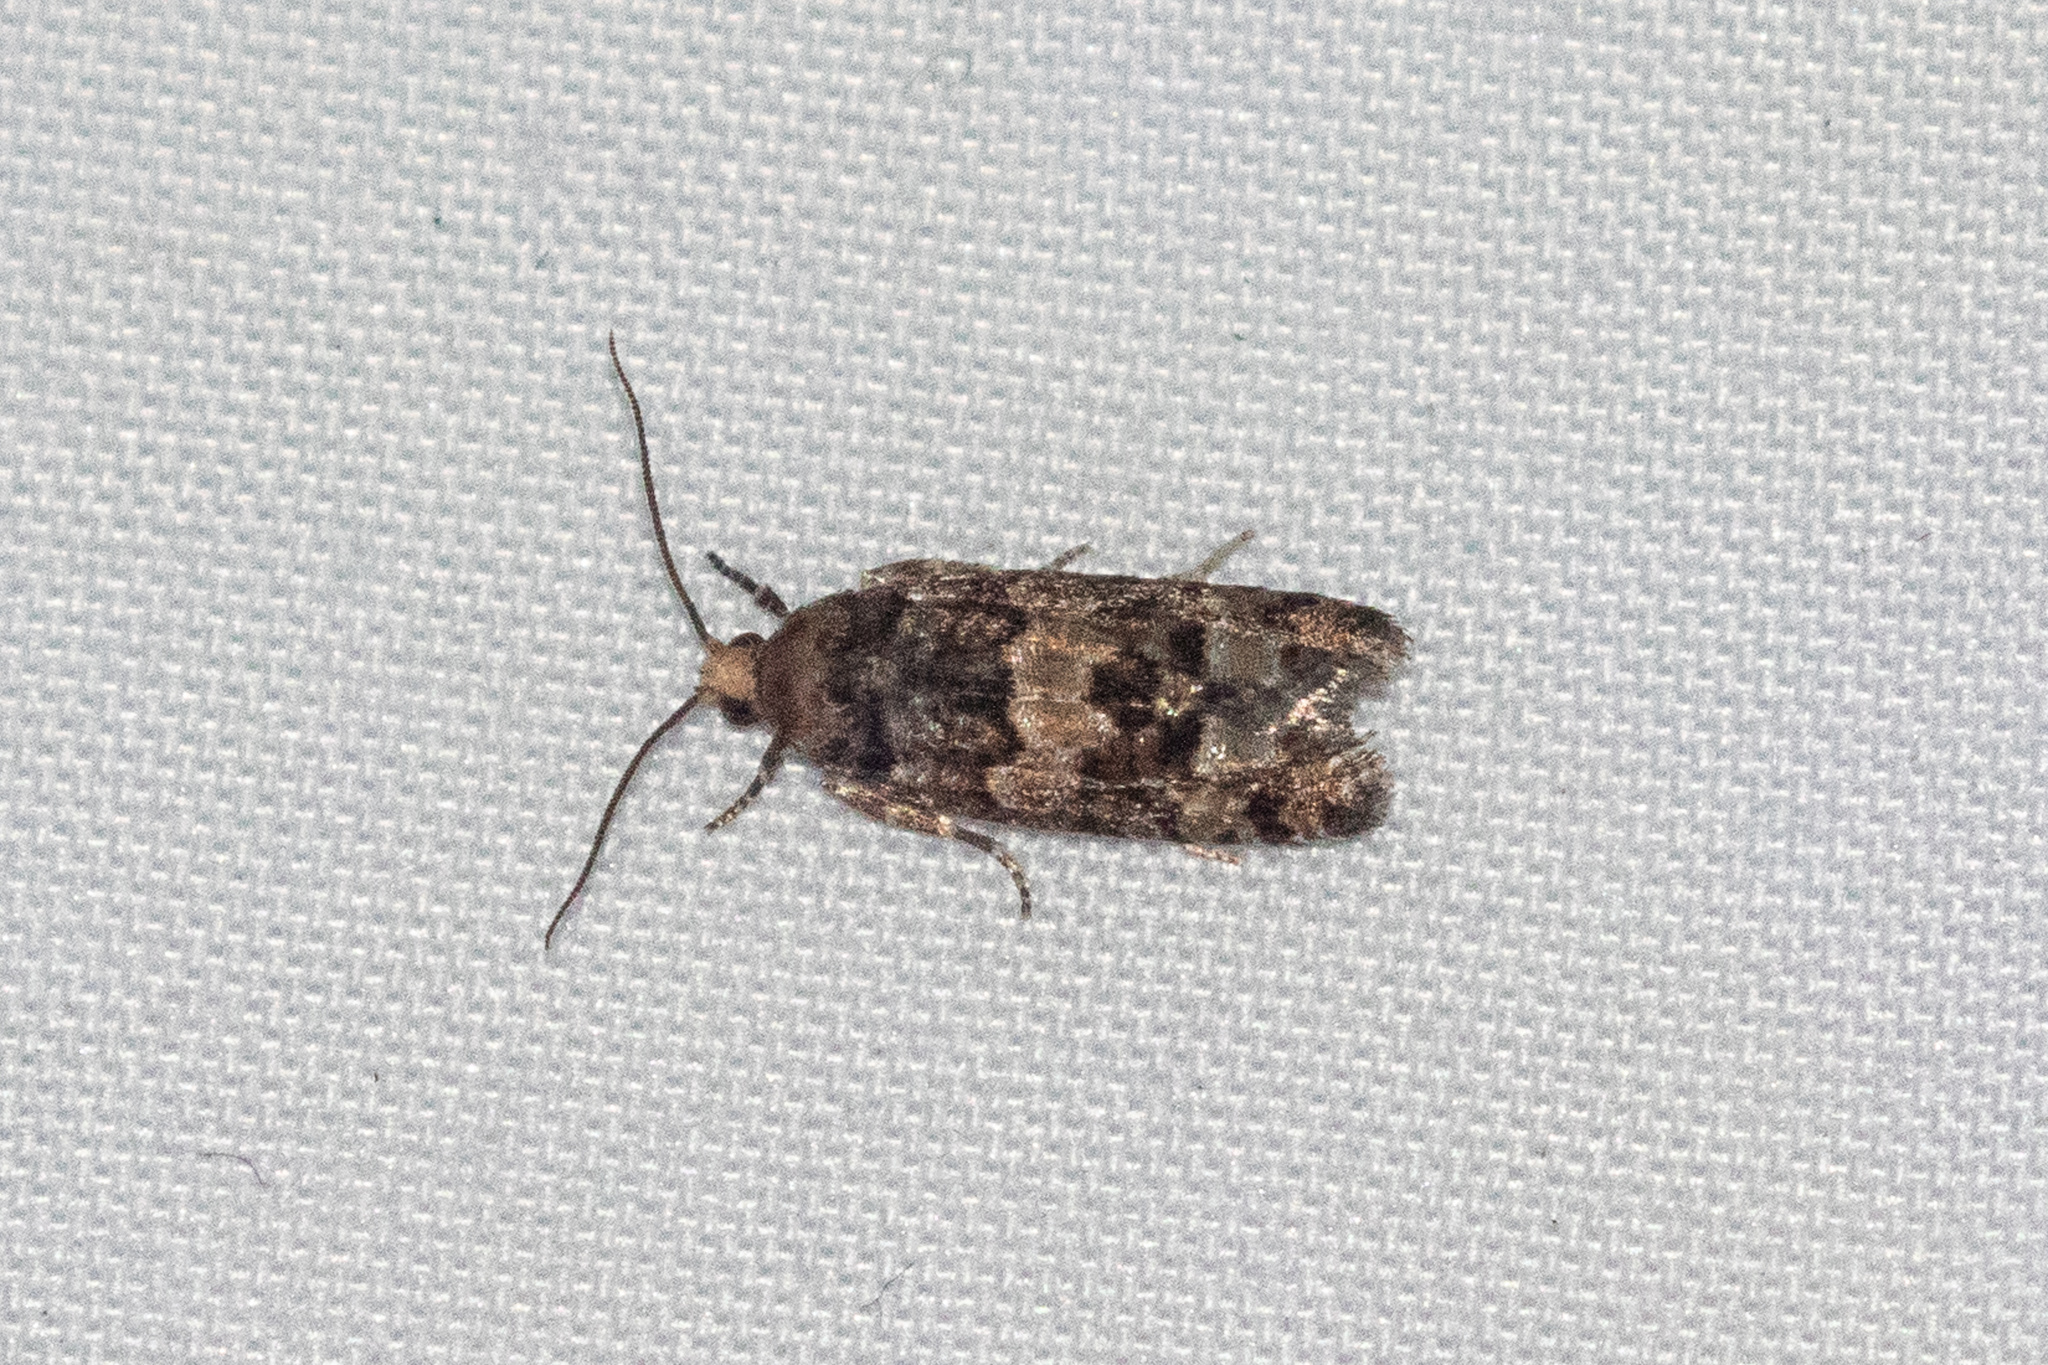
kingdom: Animalia
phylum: Arthropoda
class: Insecta
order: Lepidoptera
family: Tortricidae
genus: Eucopina
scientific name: Eucopina tocullionana
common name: White pinecone borer moth
